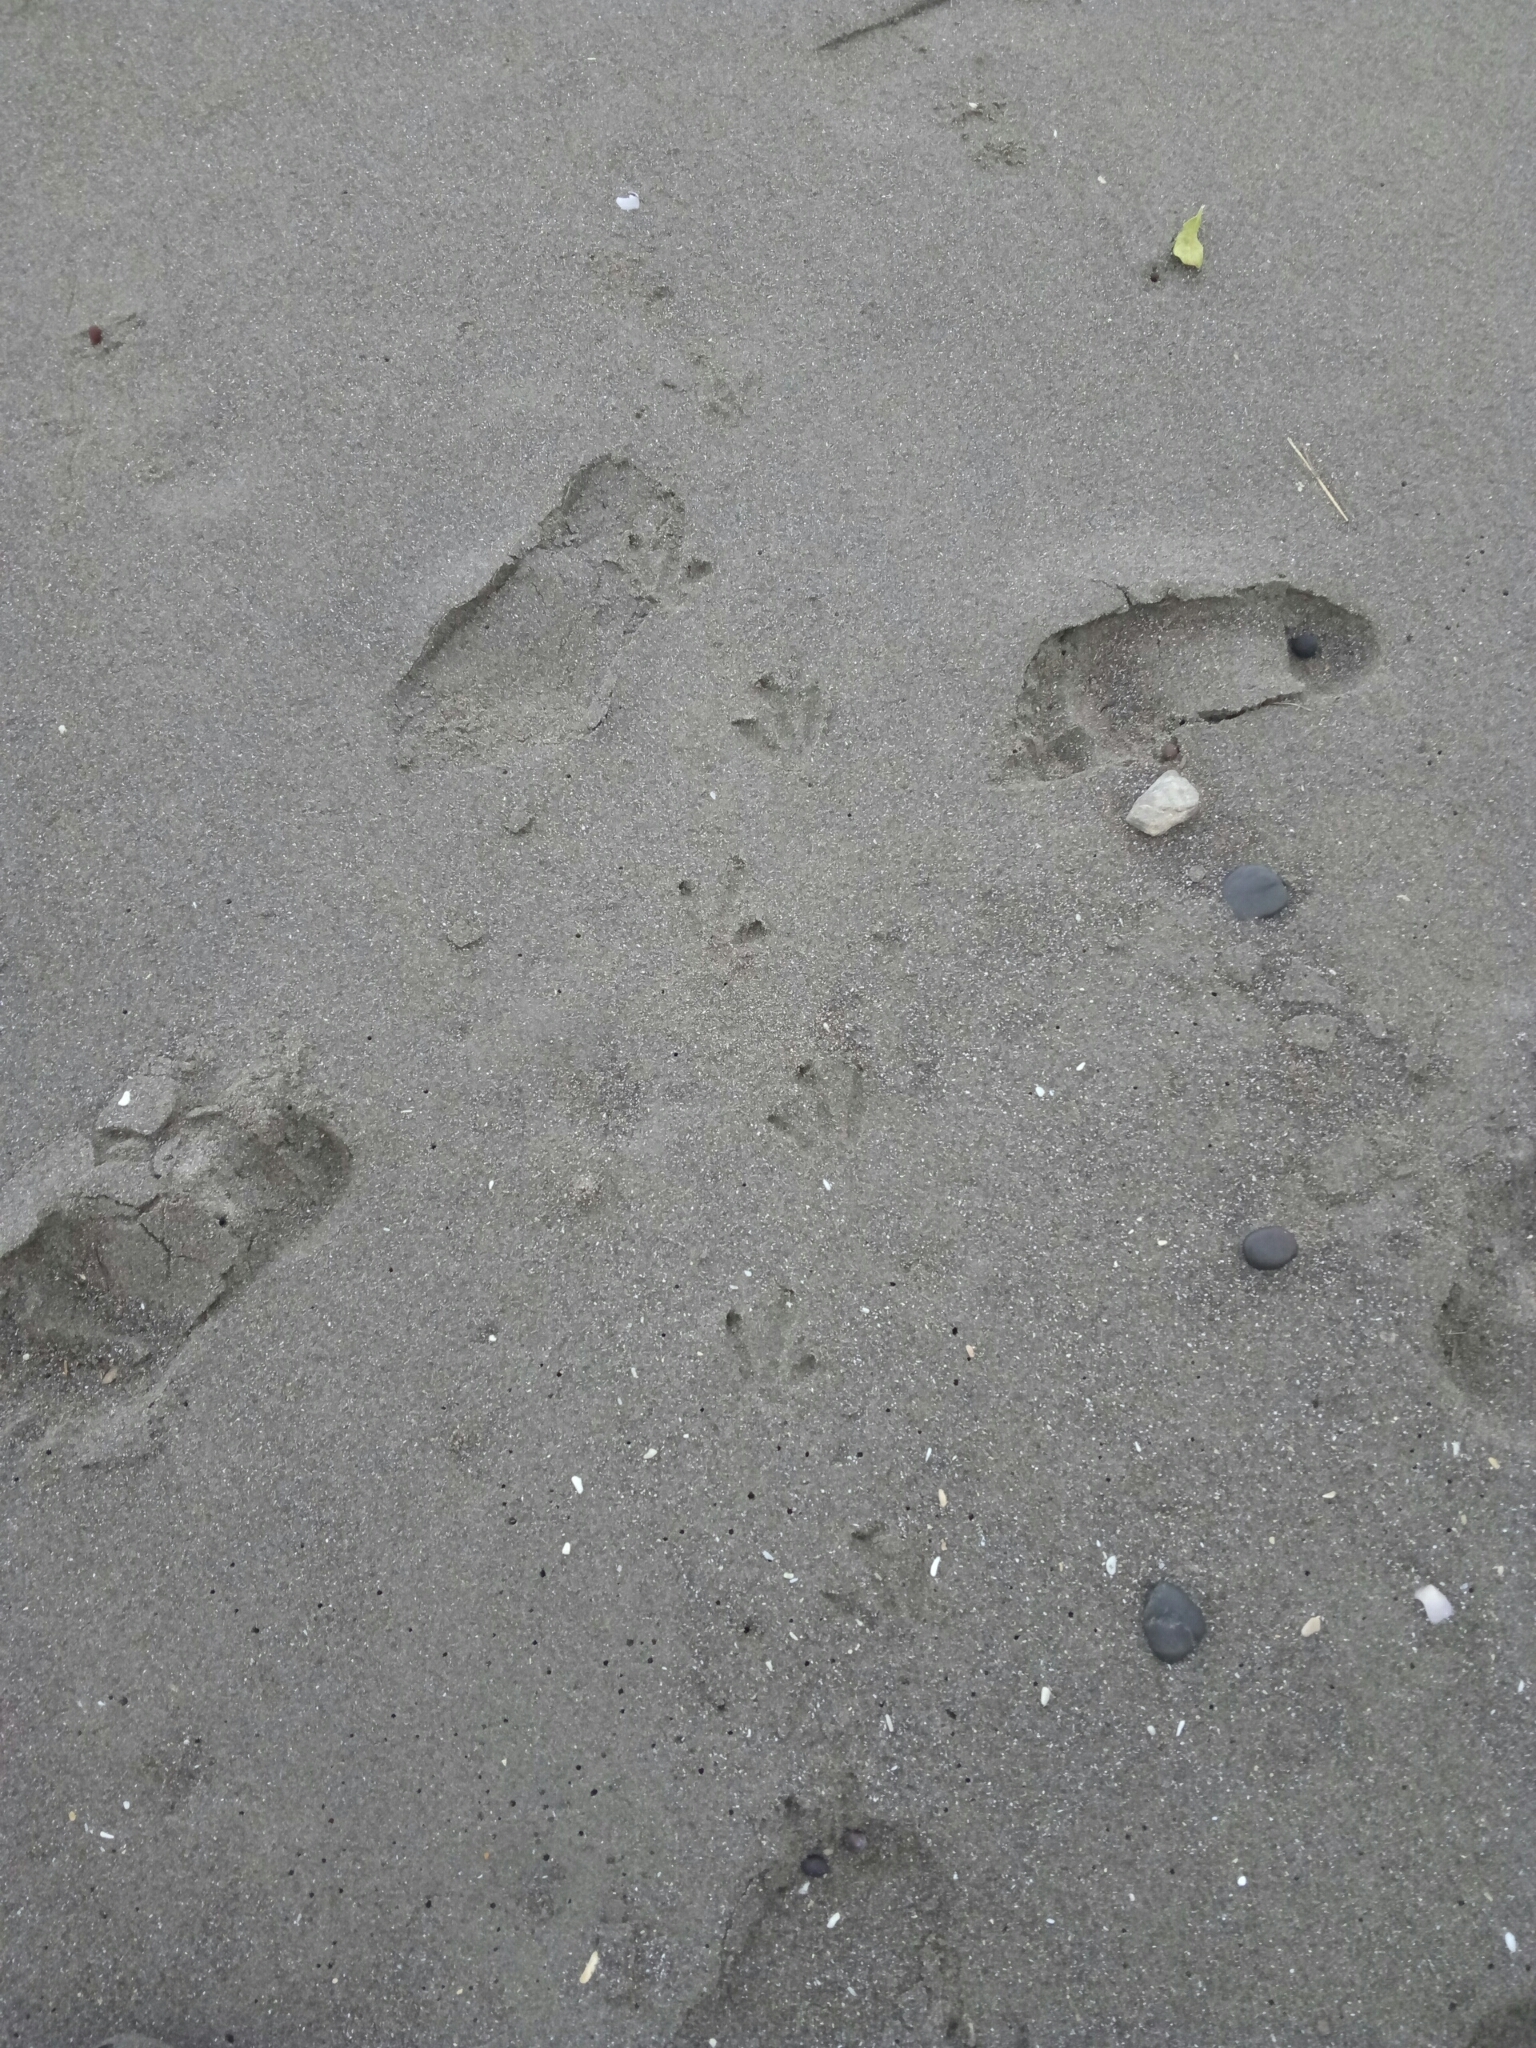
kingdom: Animalia
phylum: Chordata
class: Aves
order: Sphenisciformes
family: Spheniscidae
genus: Eudyptula
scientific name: Eudyptula minor
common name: Little penguin
